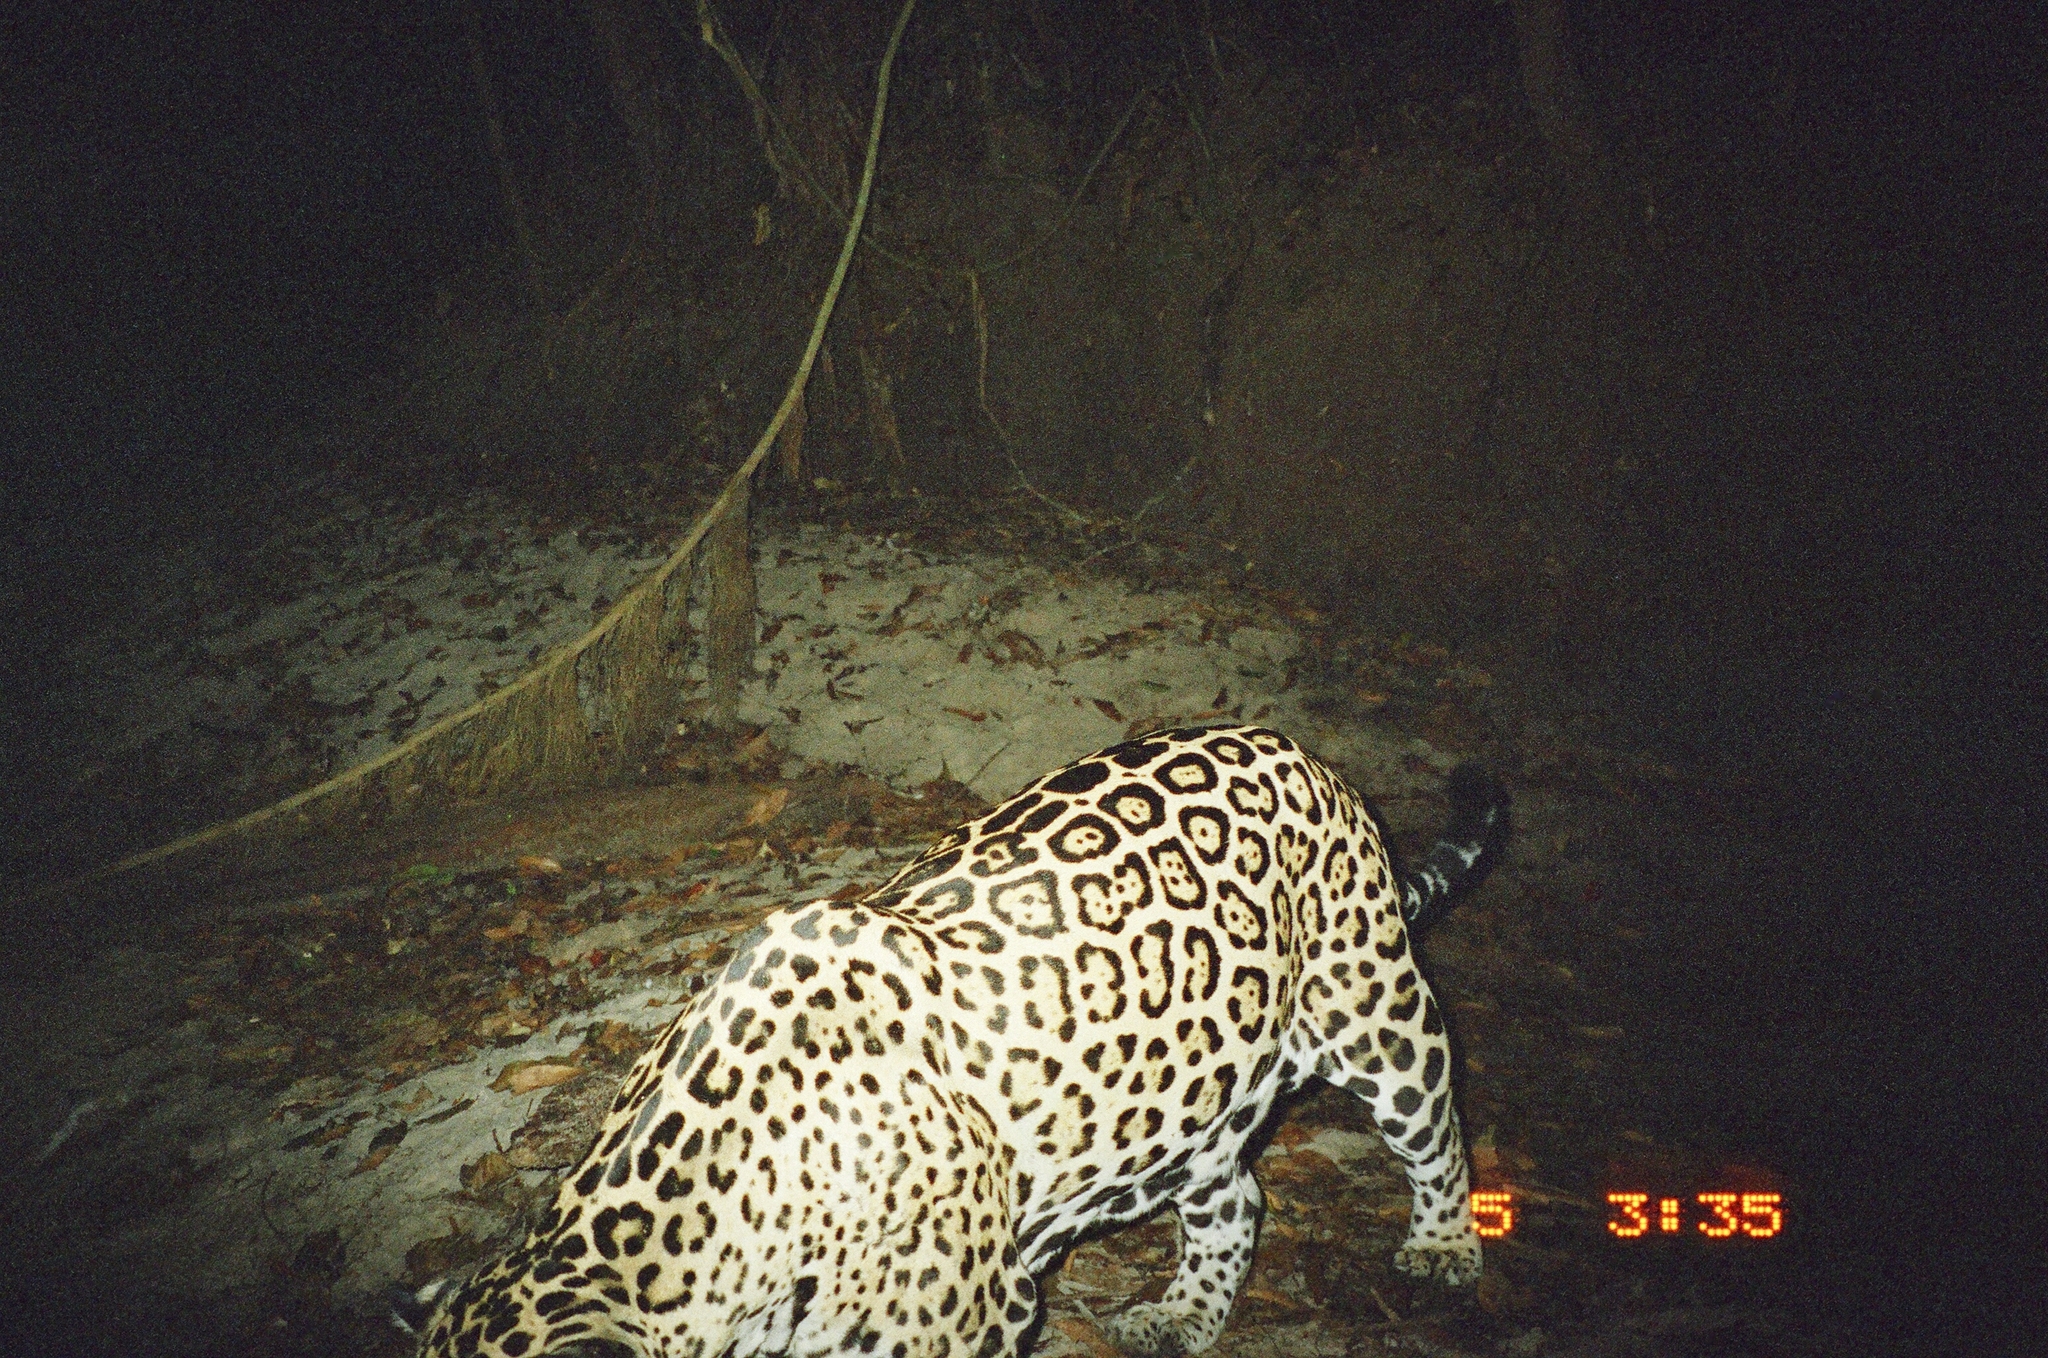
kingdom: Animalia
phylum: Chordata
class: Mammalia
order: Carnivora
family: Felidae
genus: Panthera
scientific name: Panthera onca
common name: Jaguar
